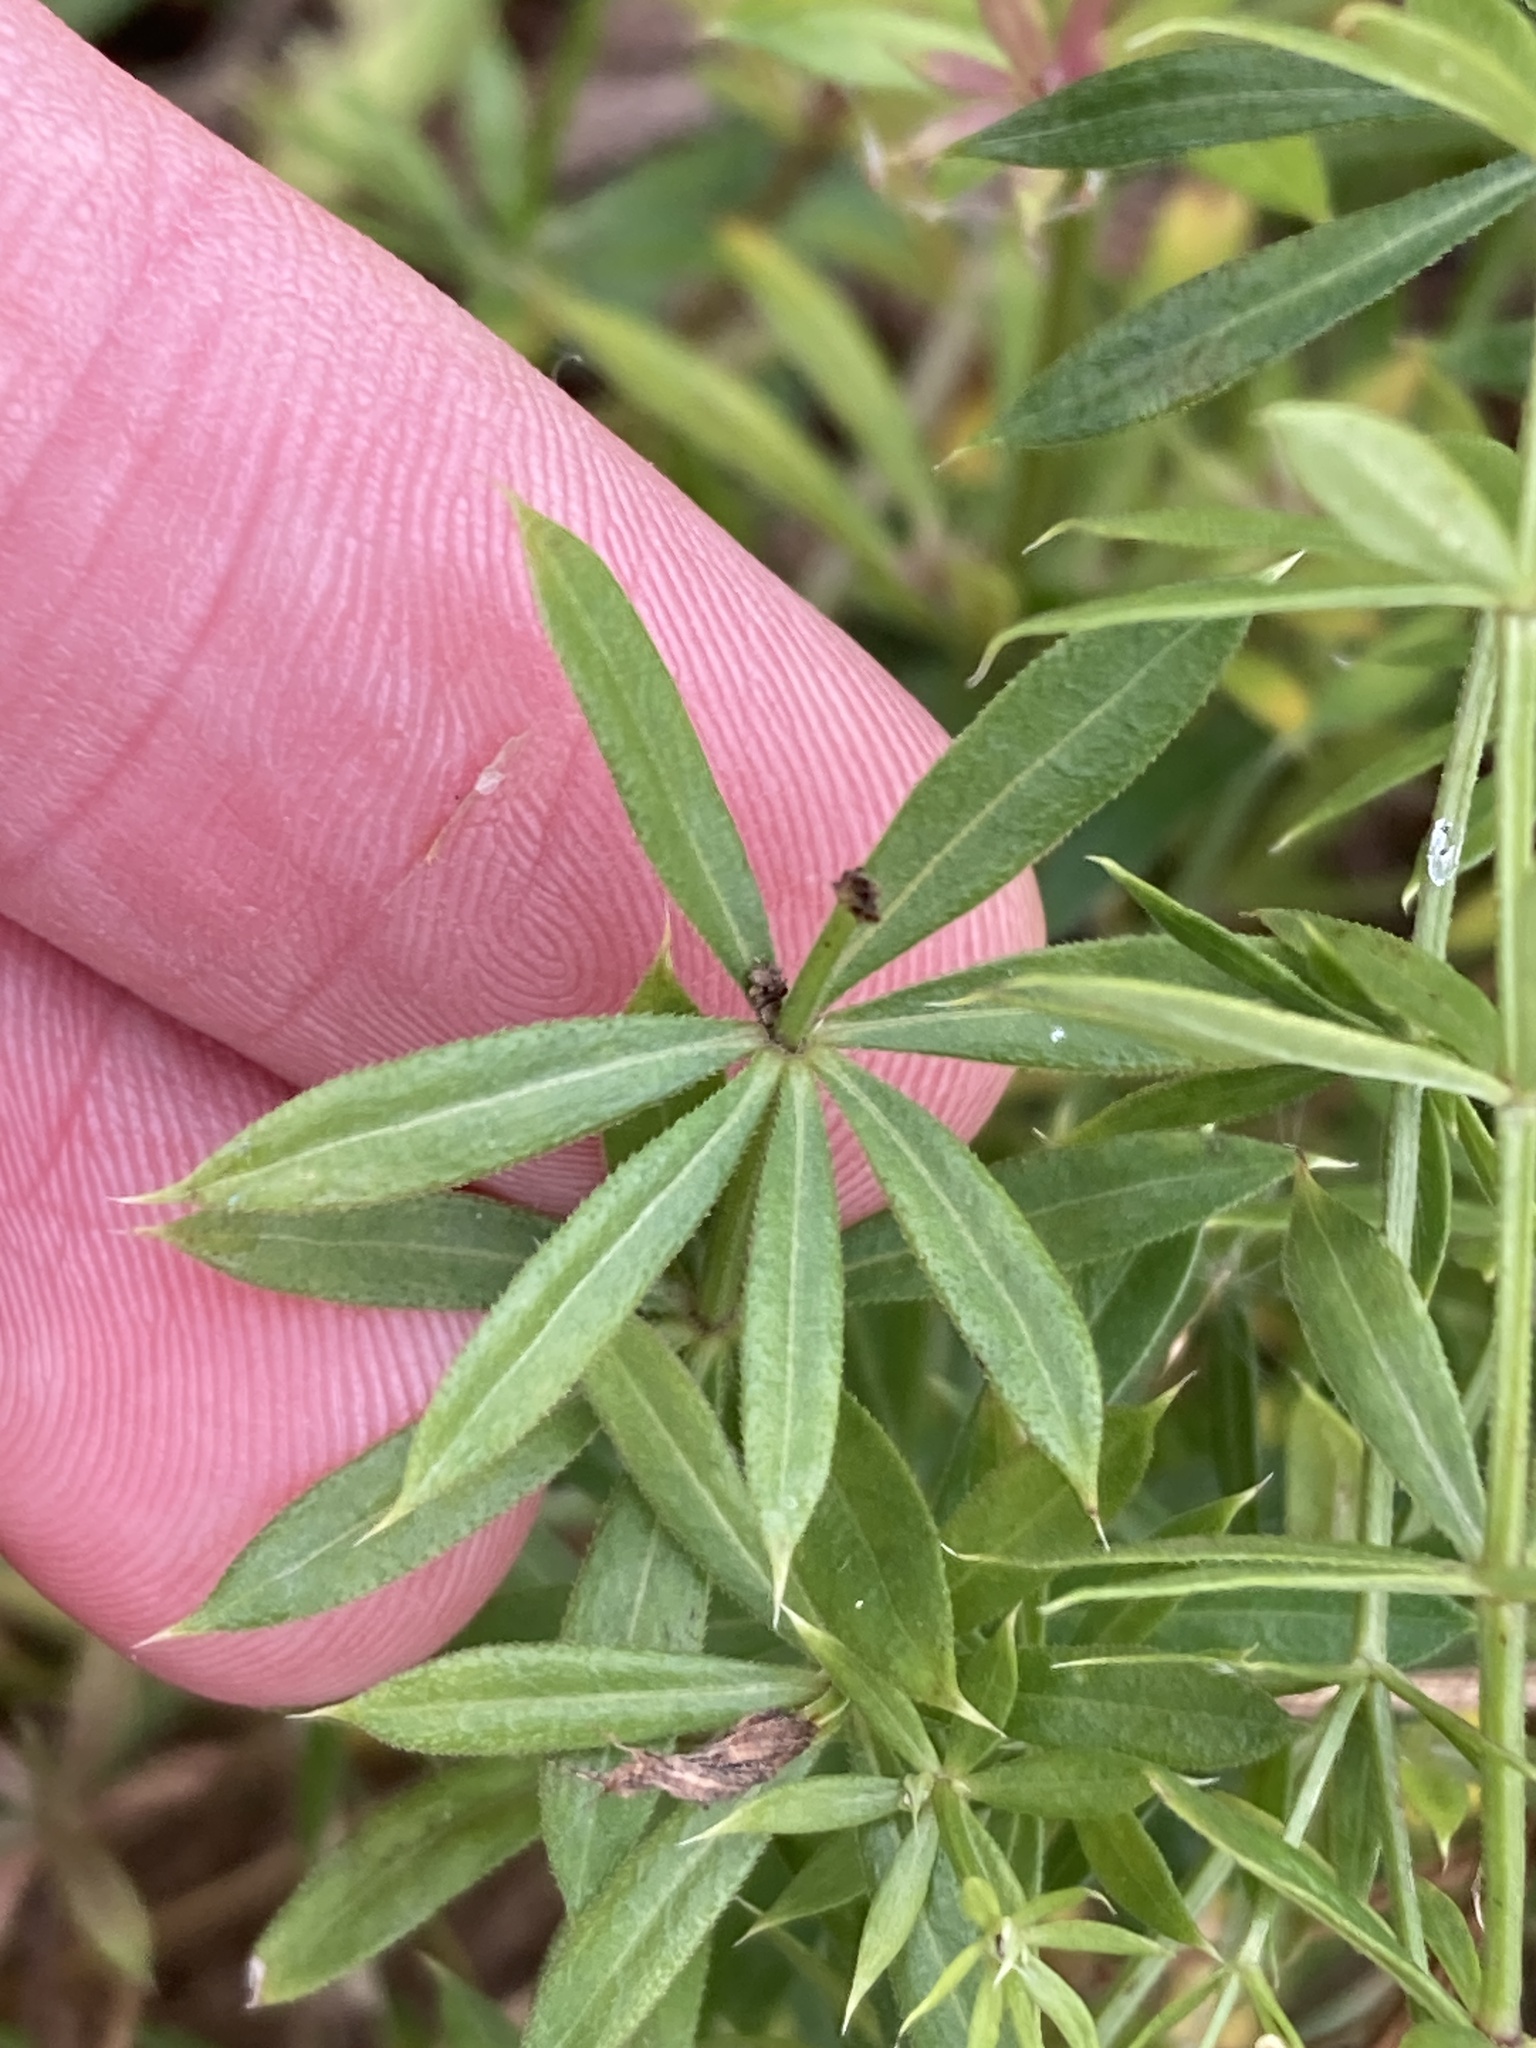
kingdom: Plantae
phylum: Tracheophyta
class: Magnoliopsida
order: Gentianales
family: Rubiaceae
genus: Galium
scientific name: Galium rivale
